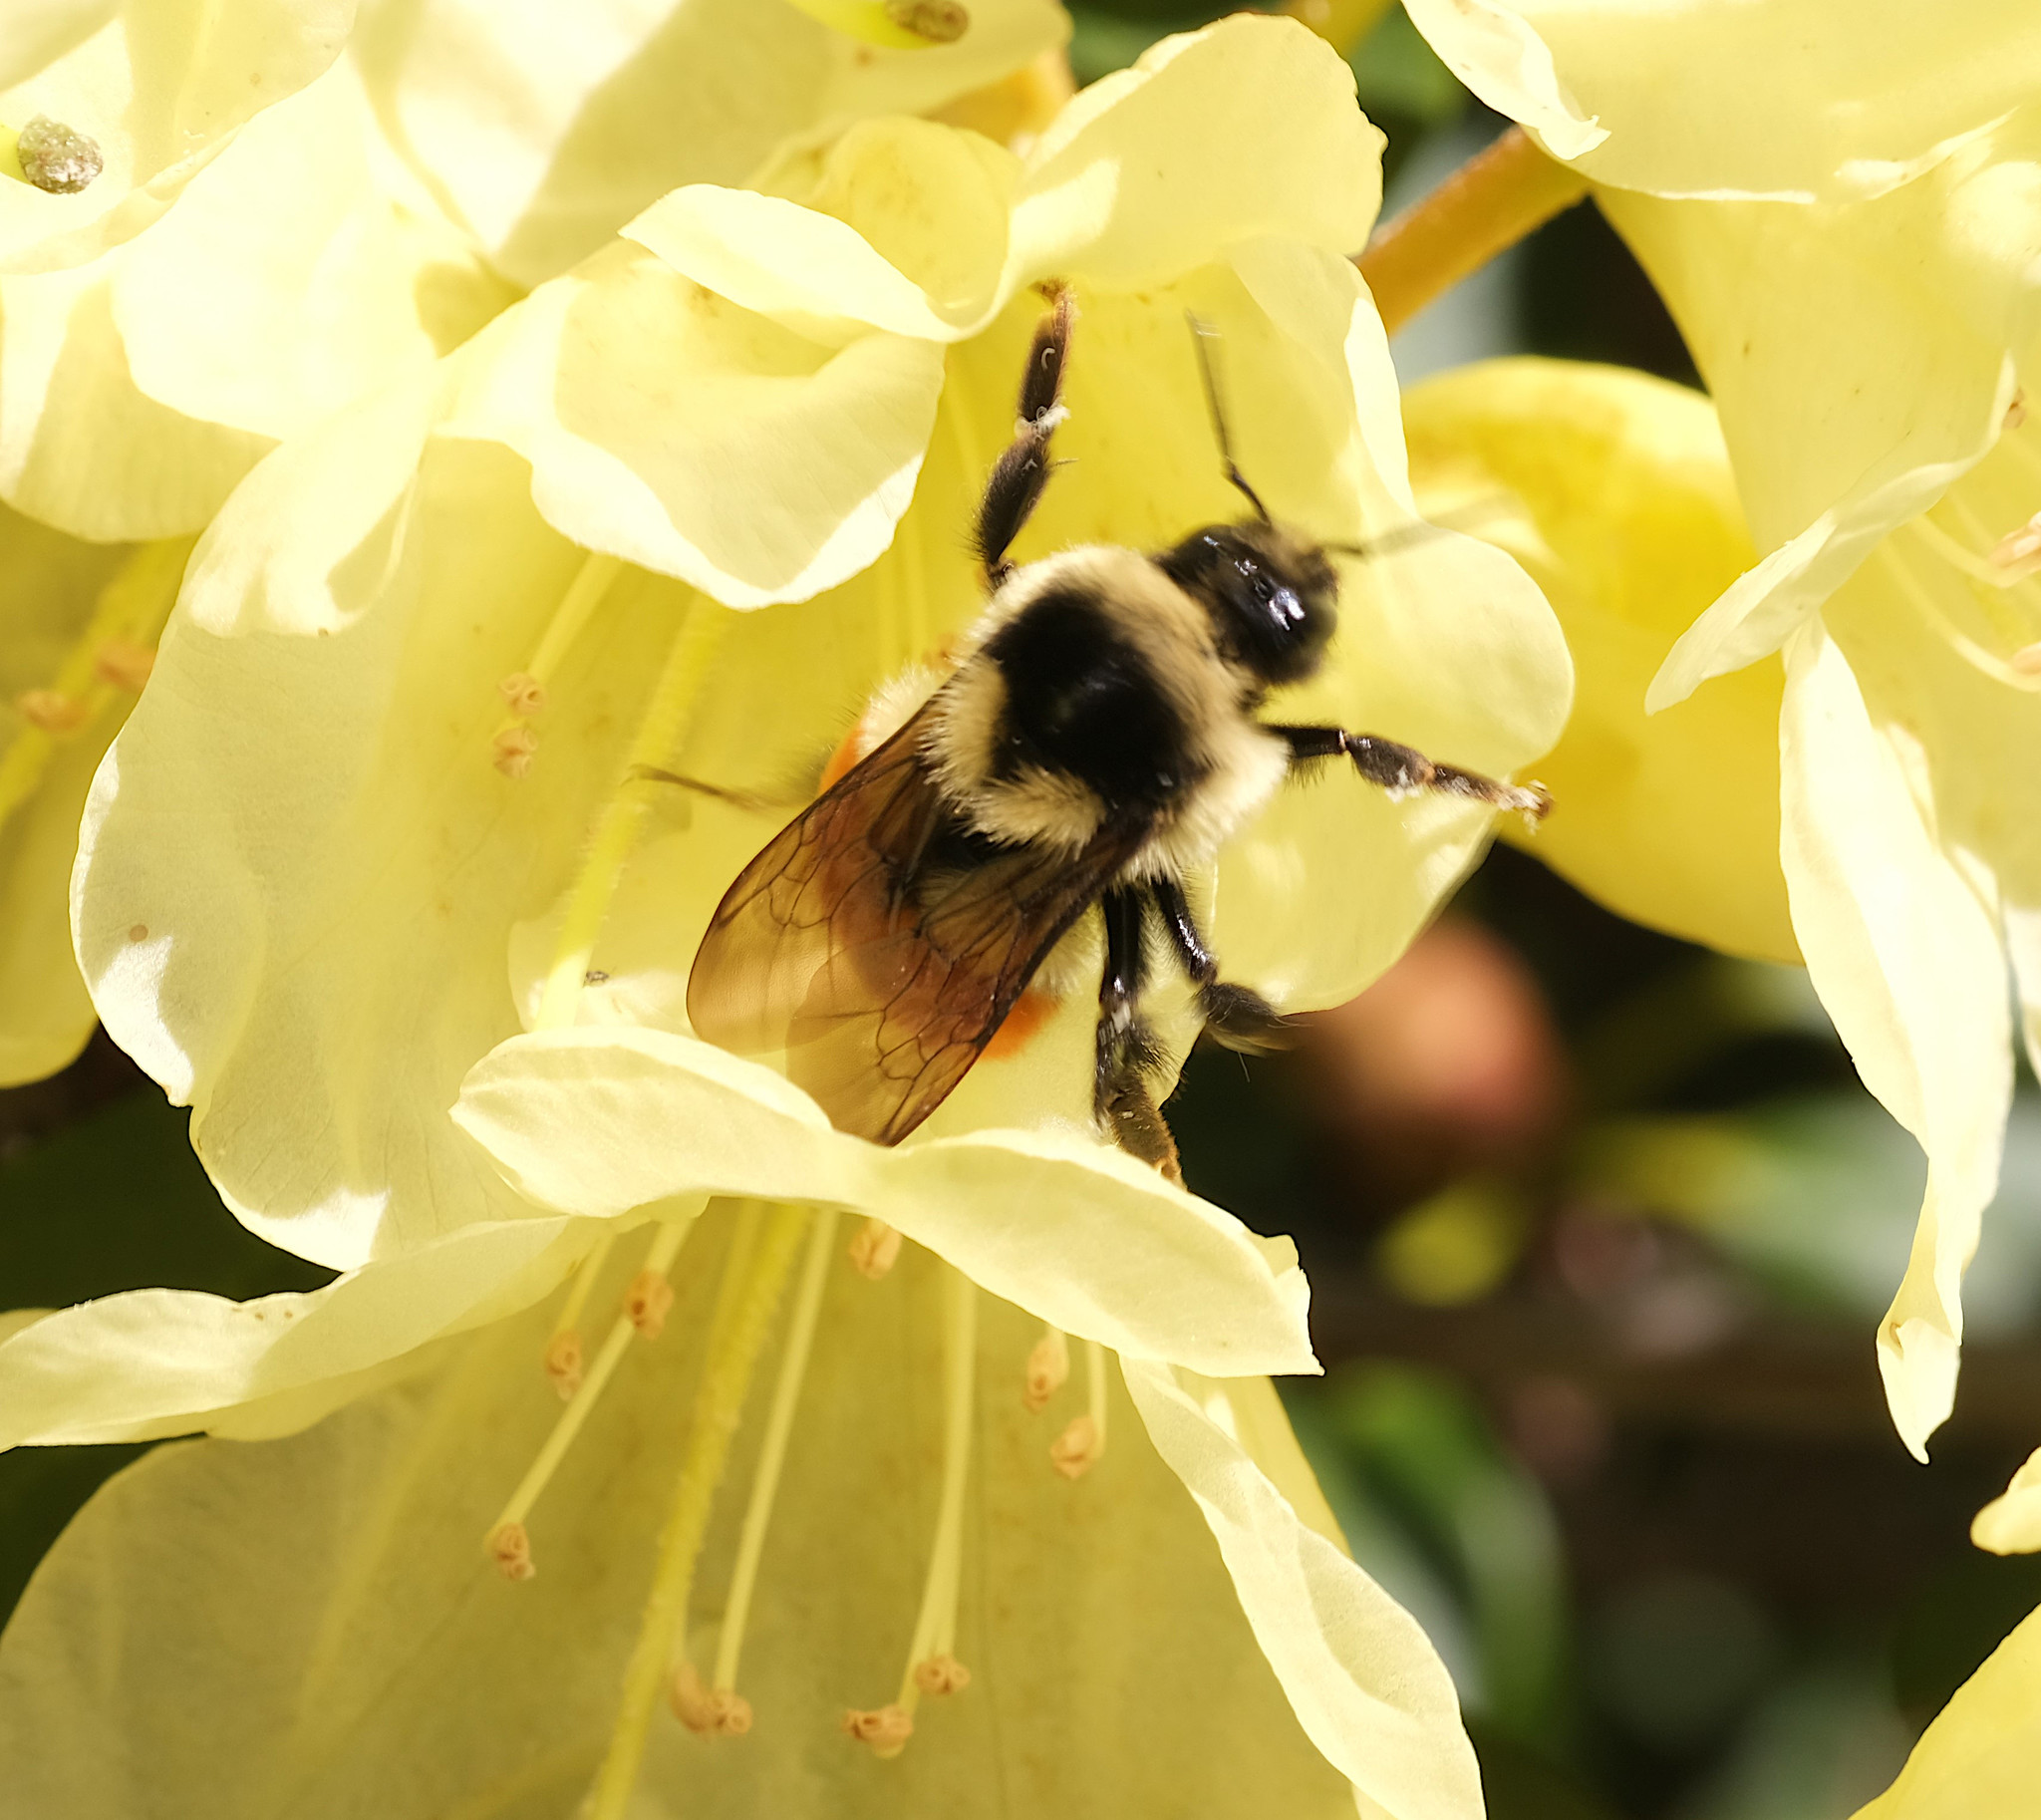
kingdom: Animalia
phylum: Arthropoda
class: Insecta
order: Hymenoptera
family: Apidae
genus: Bombus
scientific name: Bombus ternarius
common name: Tri-colored bumble bee
